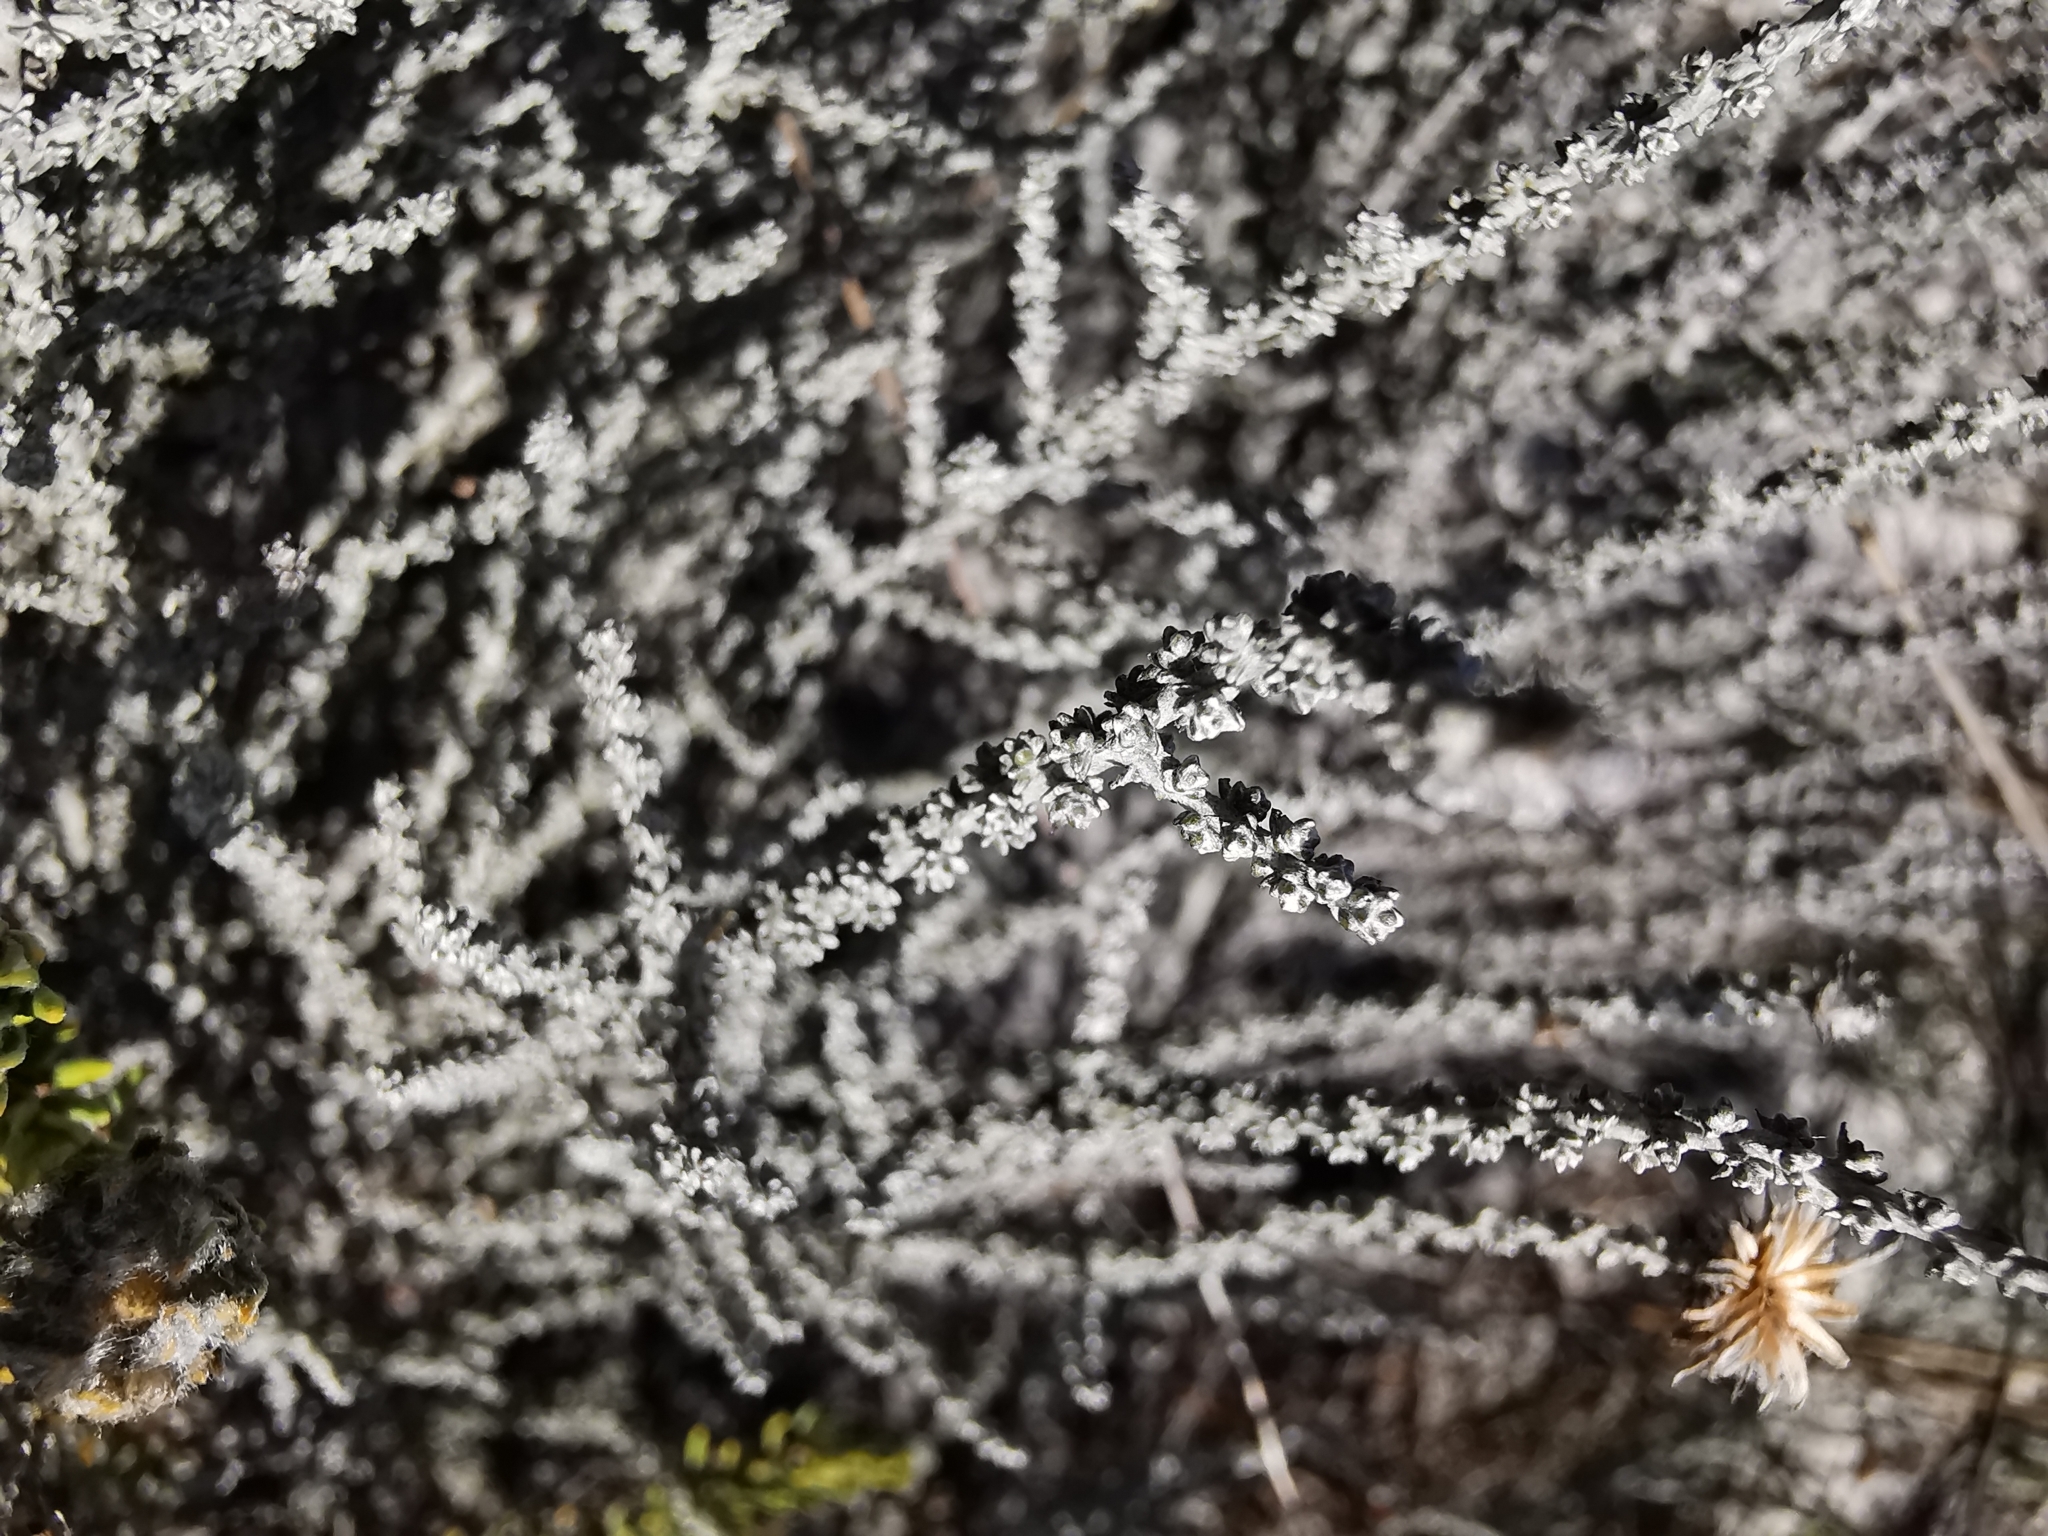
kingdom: Plantae
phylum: Tracheophyta
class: Magnoliopsida
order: Asterales
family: Asteraceae
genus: Lachnospermum
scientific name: Lachnospermum fasciculatum
